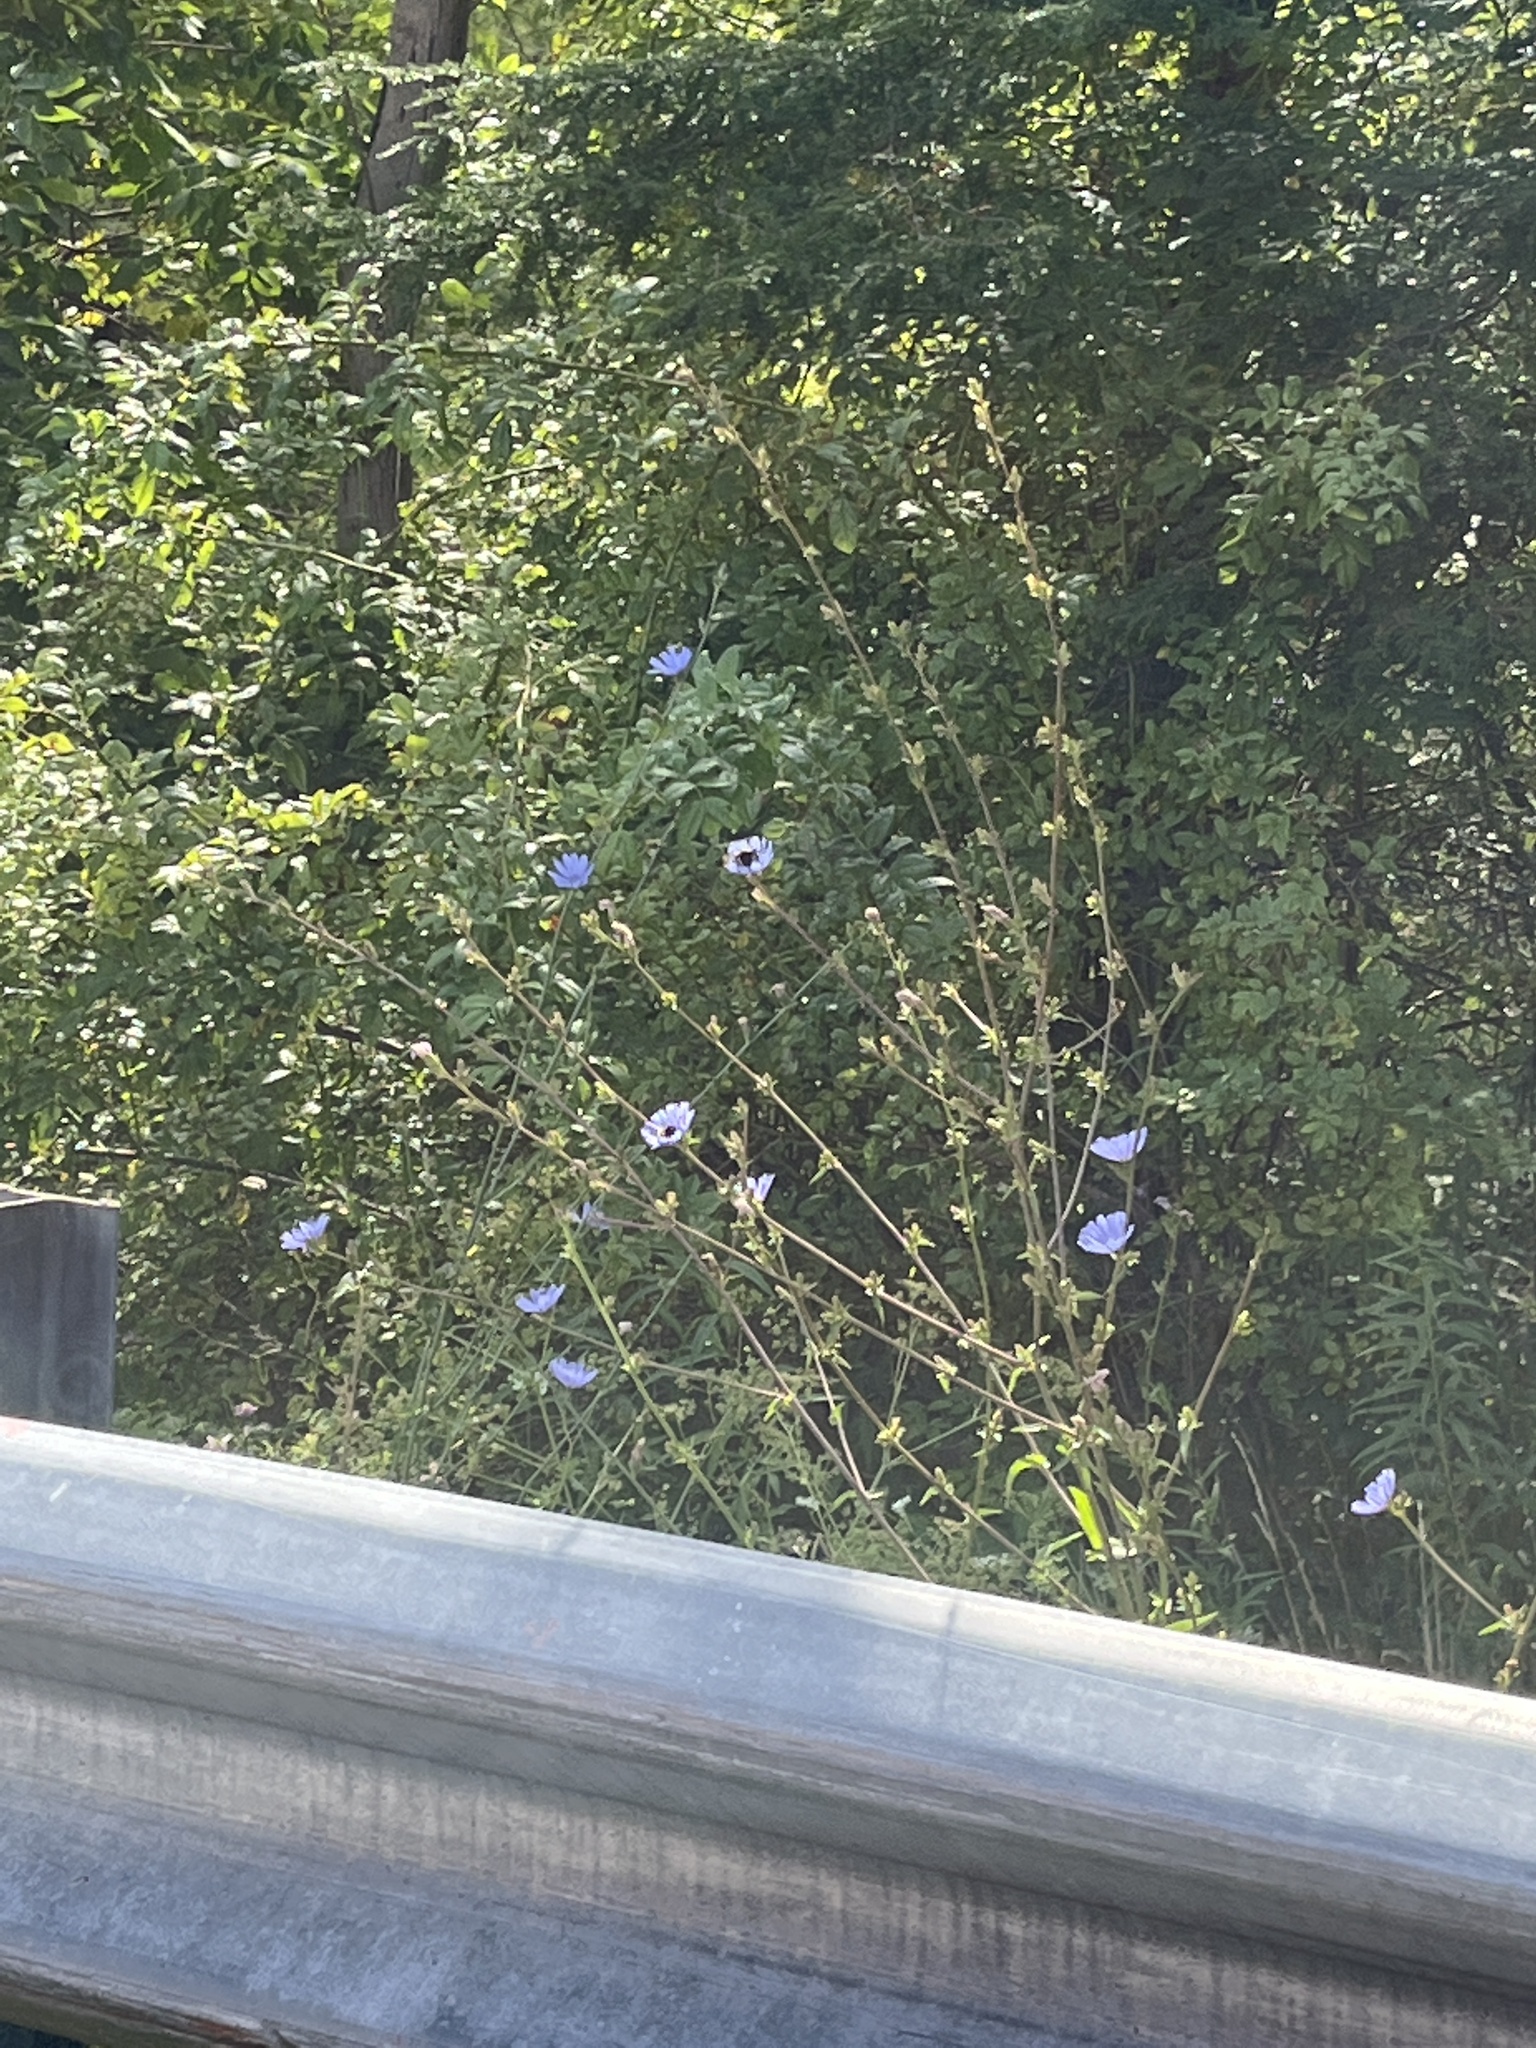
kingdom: Plantae
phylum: Tracheophyta
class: Magnoliopsida
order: Asterales
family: Asteraceae
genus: Cichorium
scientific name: Cichorium intybus
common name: Chicory
